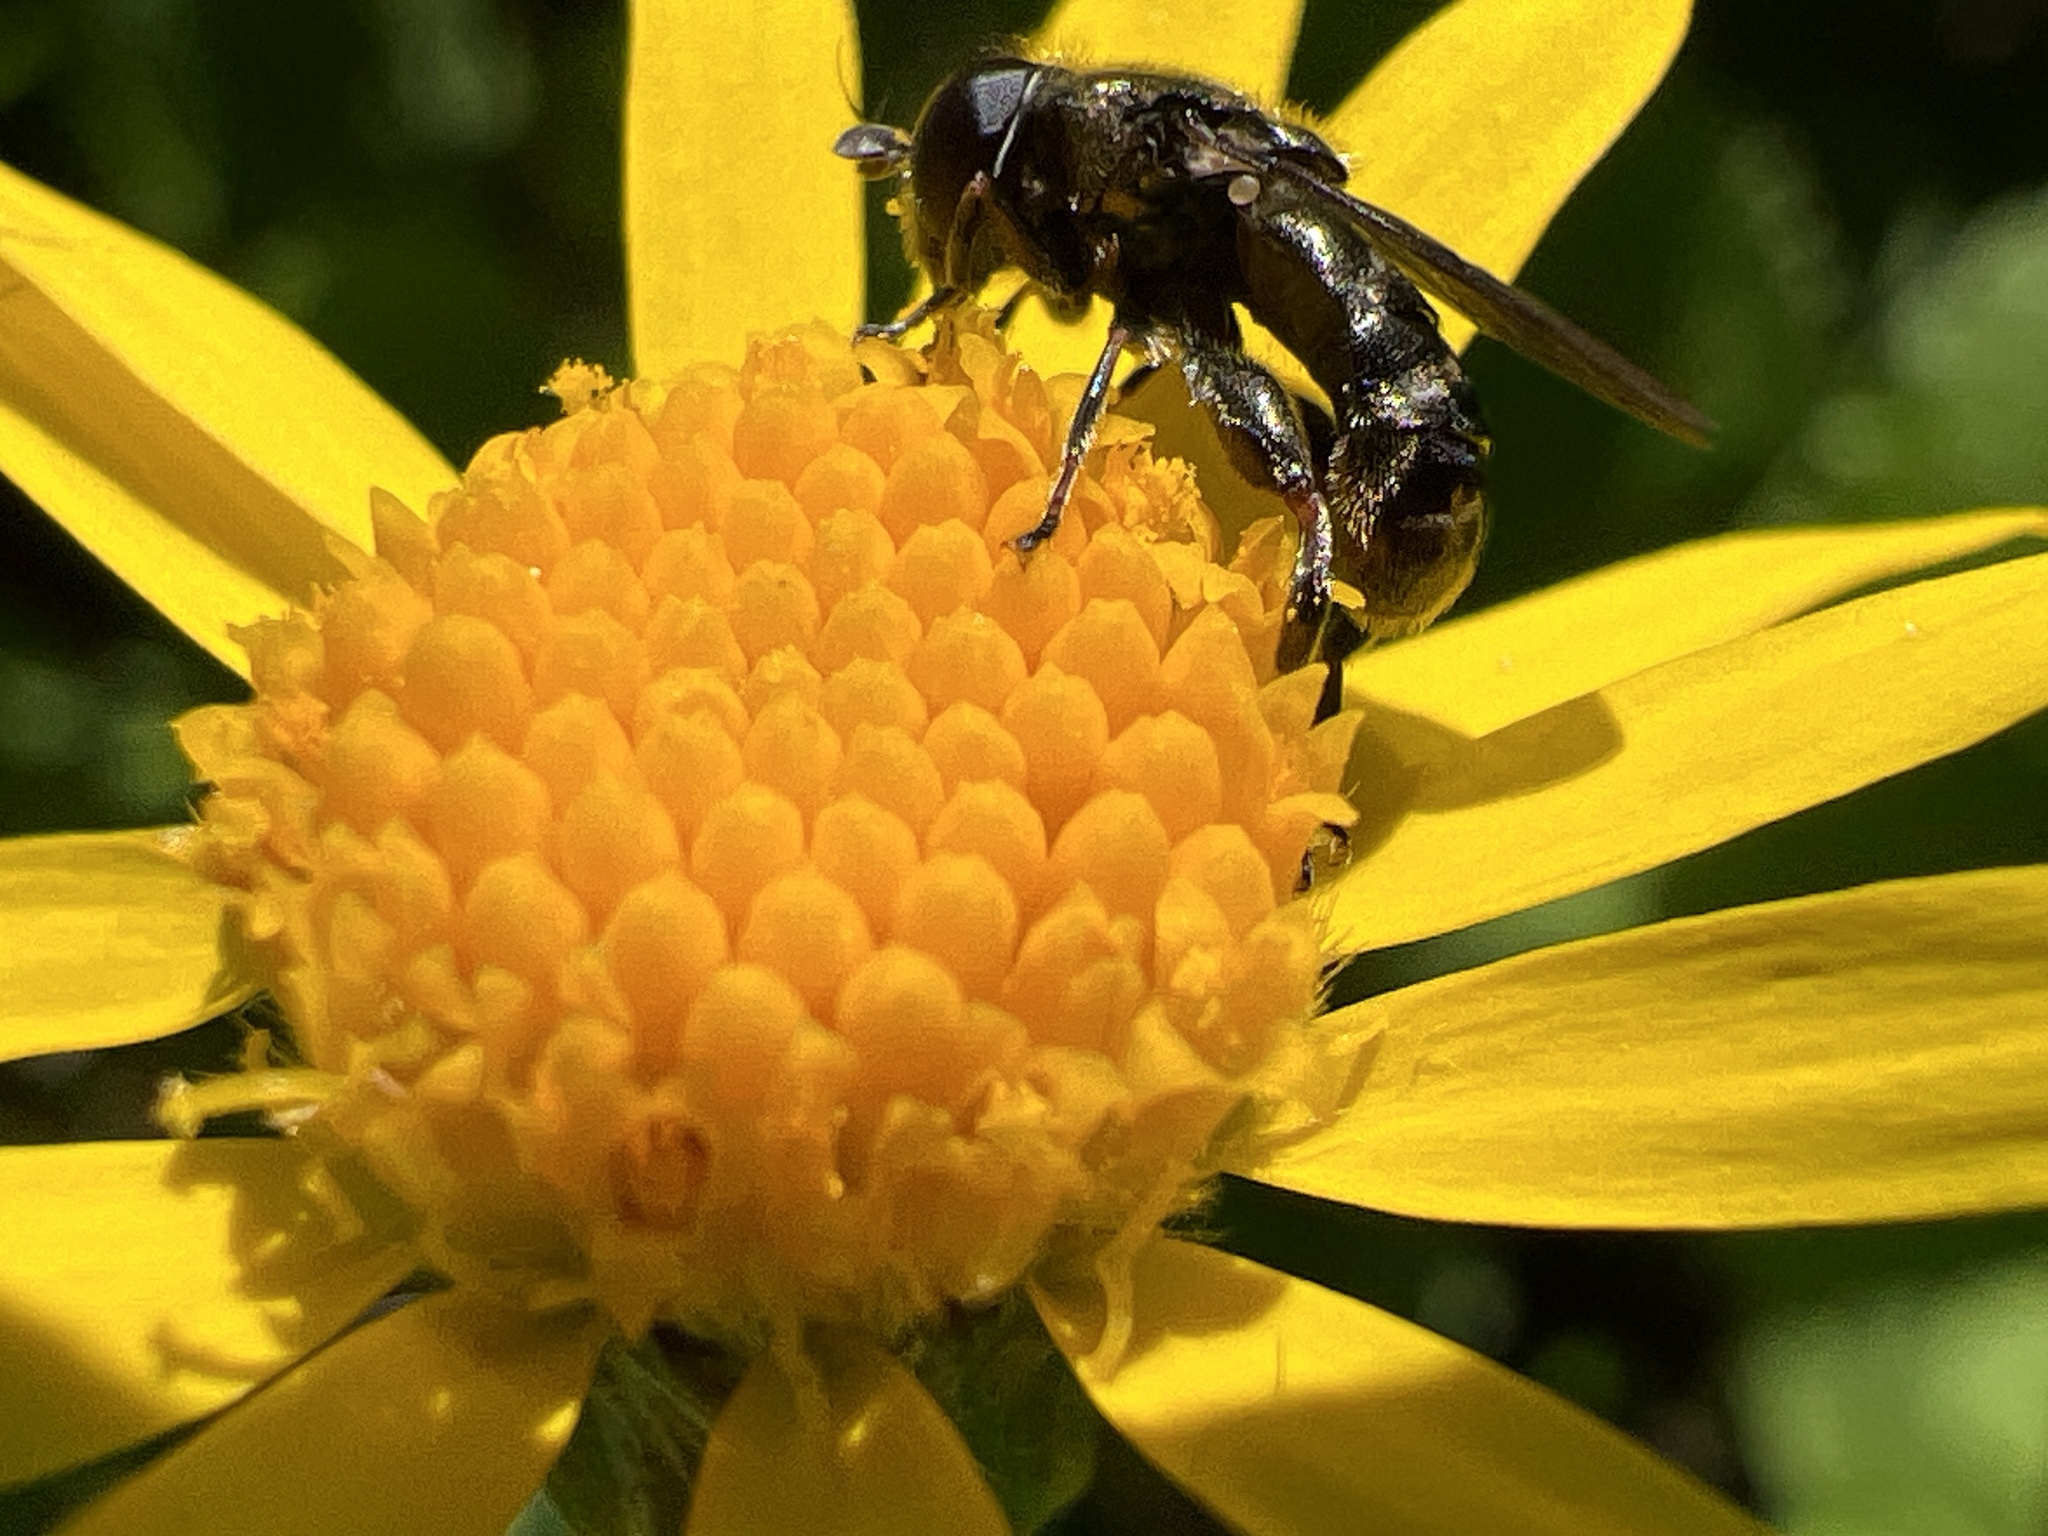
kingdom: Animalia
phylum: Arthropoda
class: Insecta
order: Diptera
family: Syrphidae
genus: Eumerus
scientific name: Eumerus
